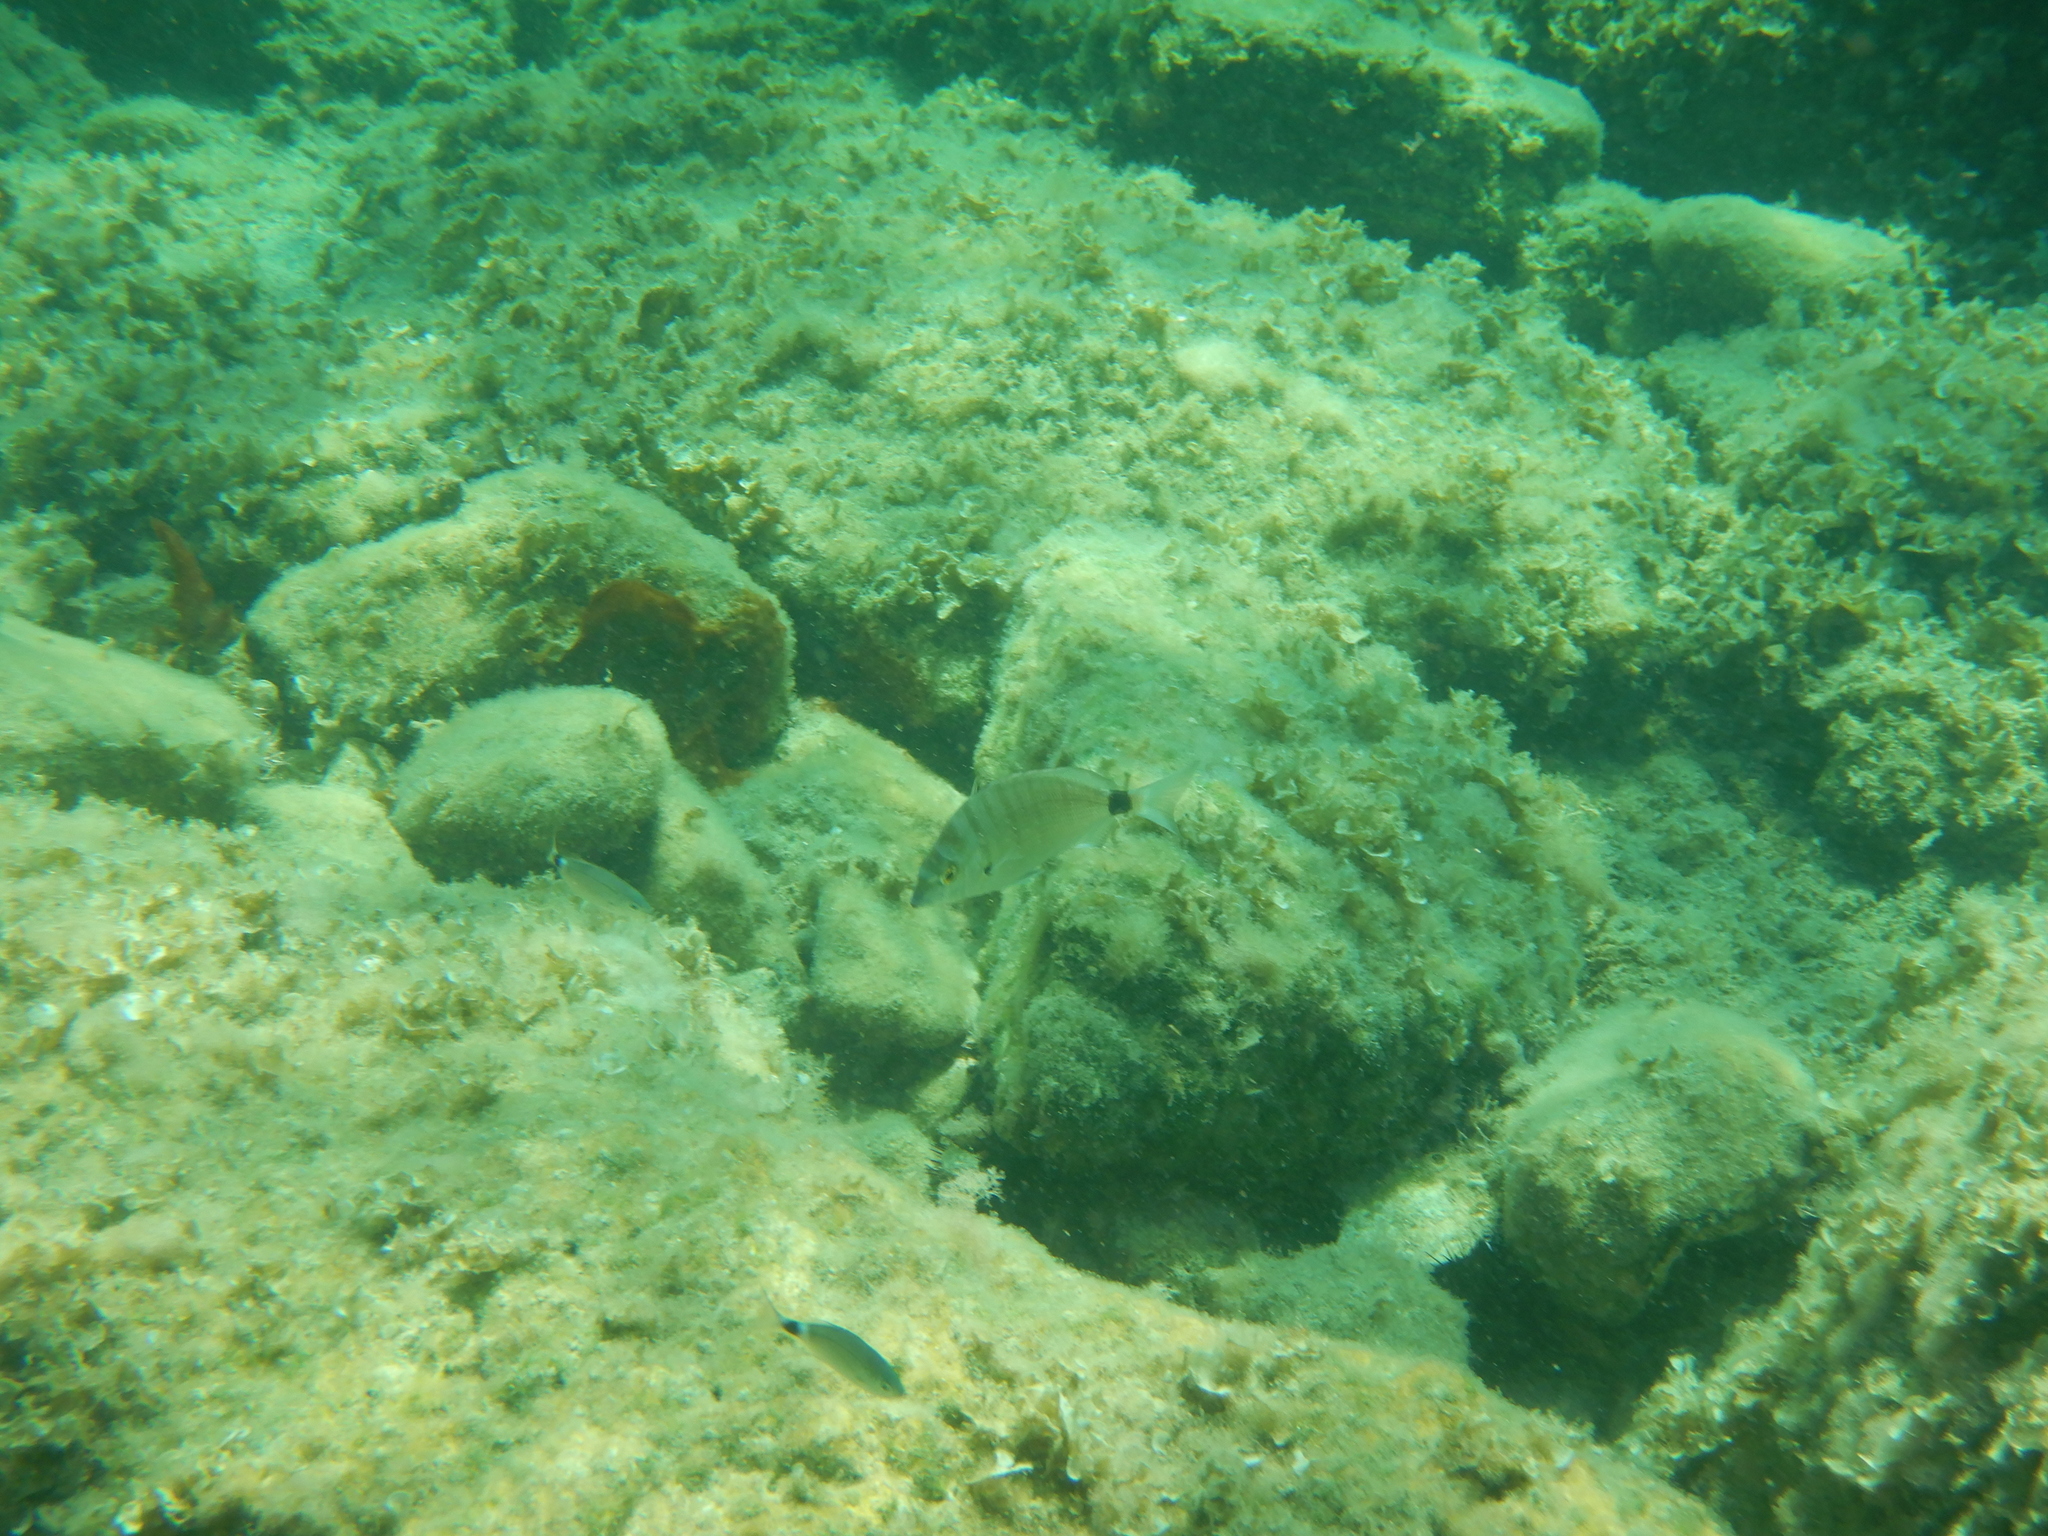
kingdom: Animalia
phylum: Chordata
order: Perciformes
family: Sparidae
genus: Diplodus
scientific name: Diplodus puntazzo
